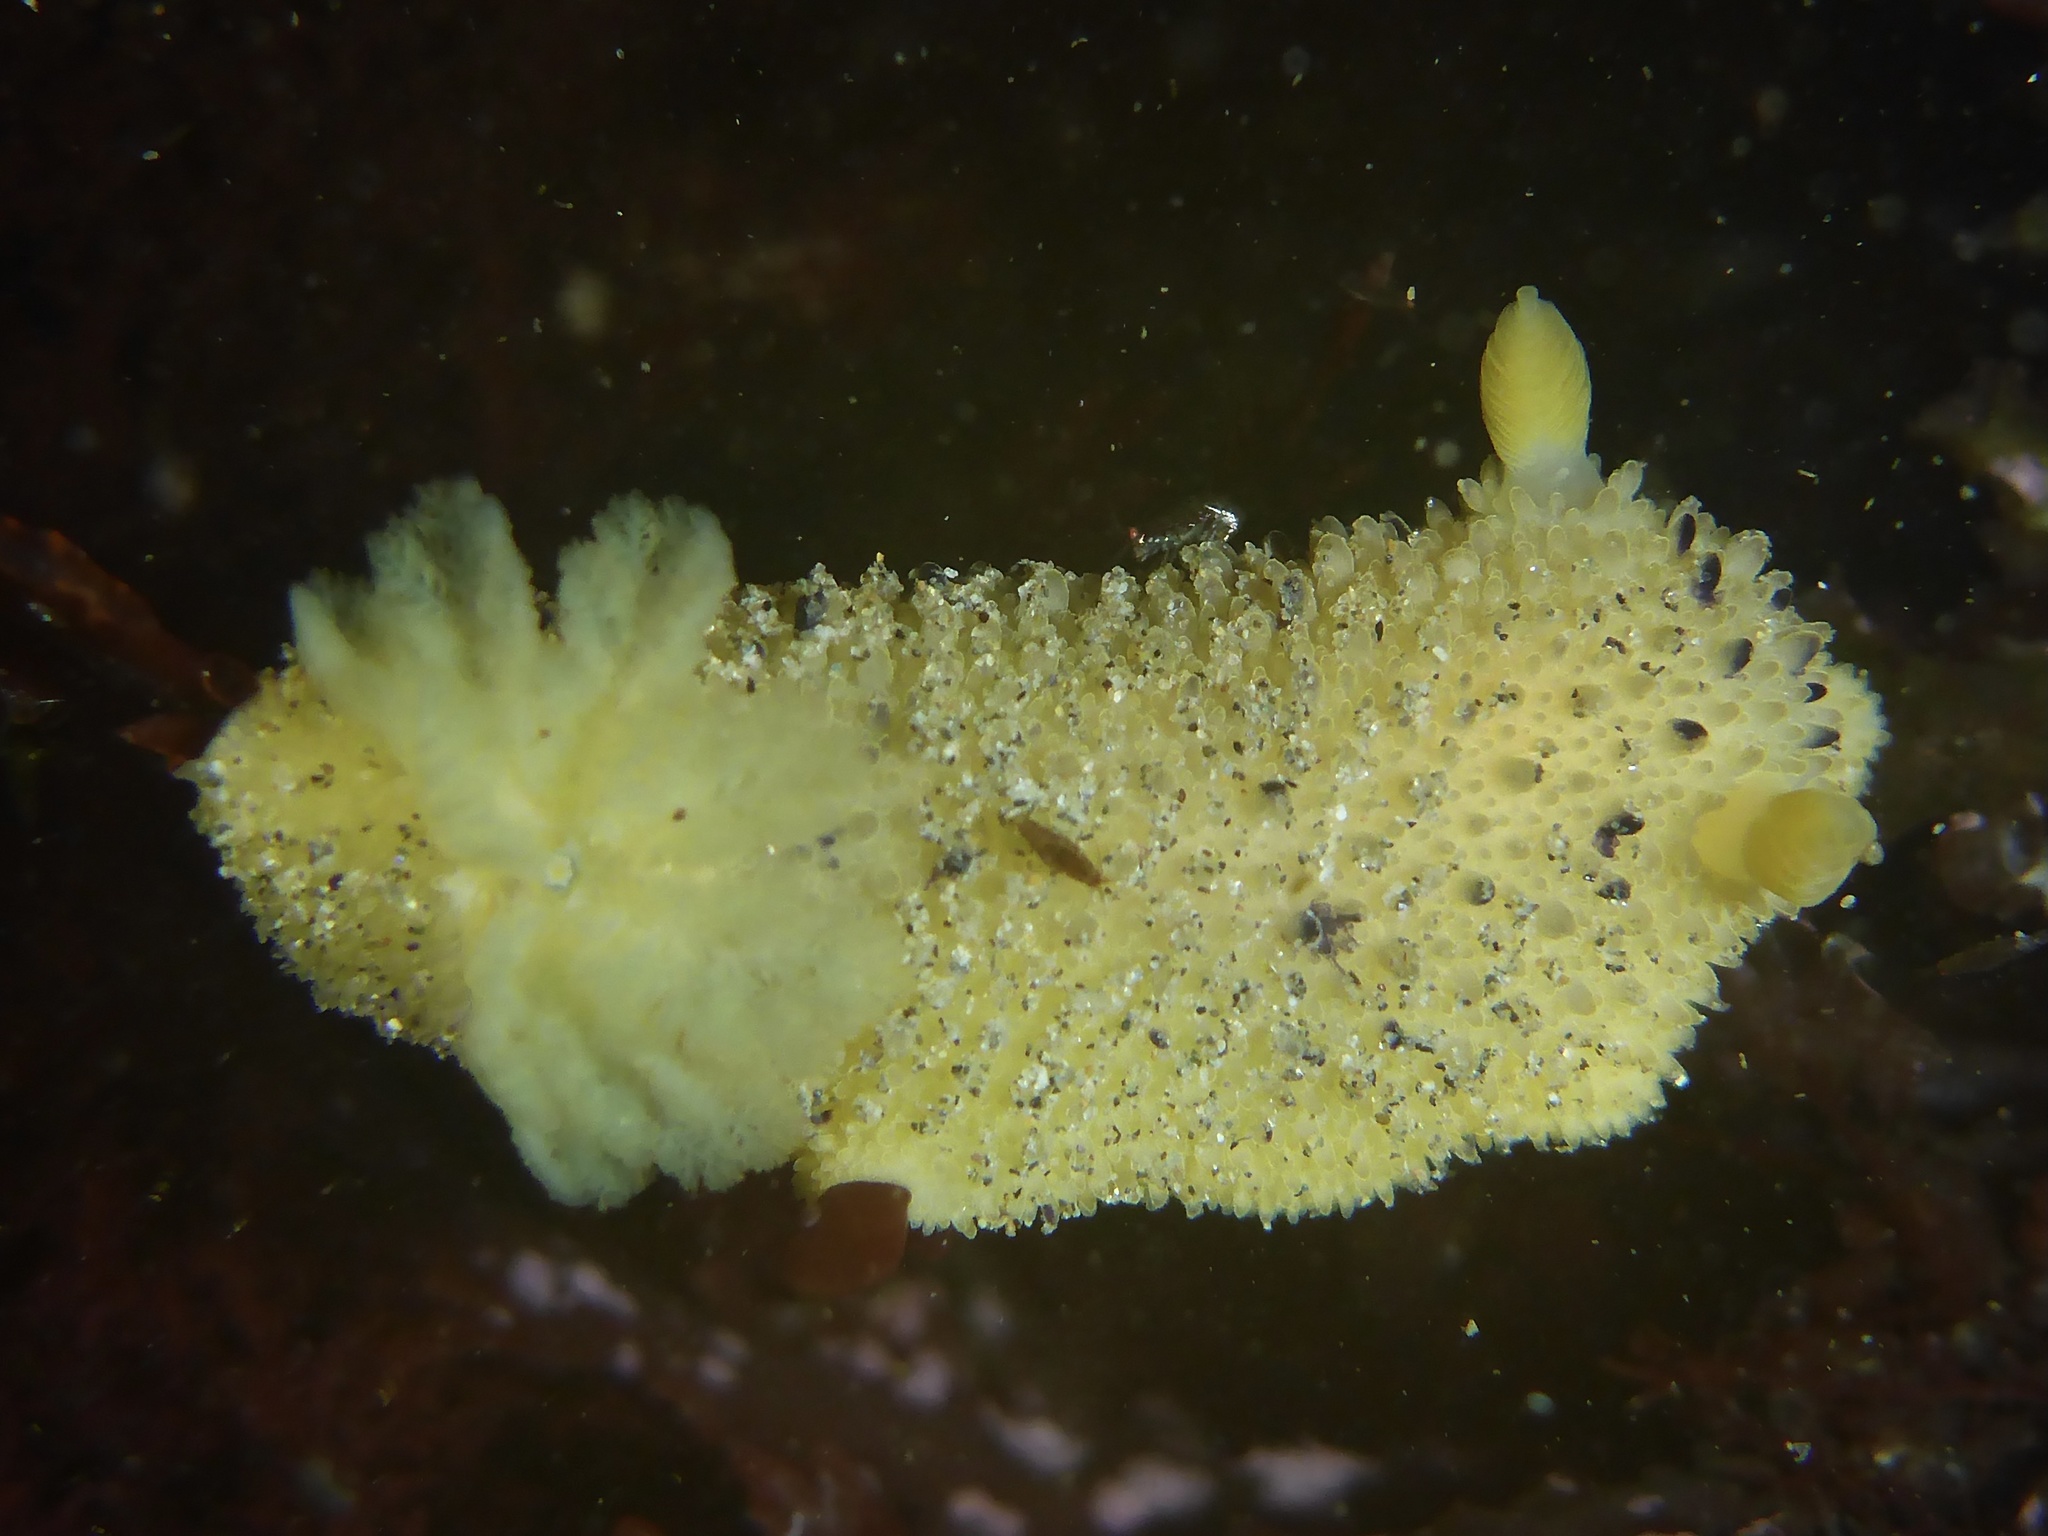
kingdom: Animalia
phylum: Mollusca
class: Gastropoda
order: Nudibranchia
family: Dorididae
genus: Doris
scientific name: Doris montereyensis
